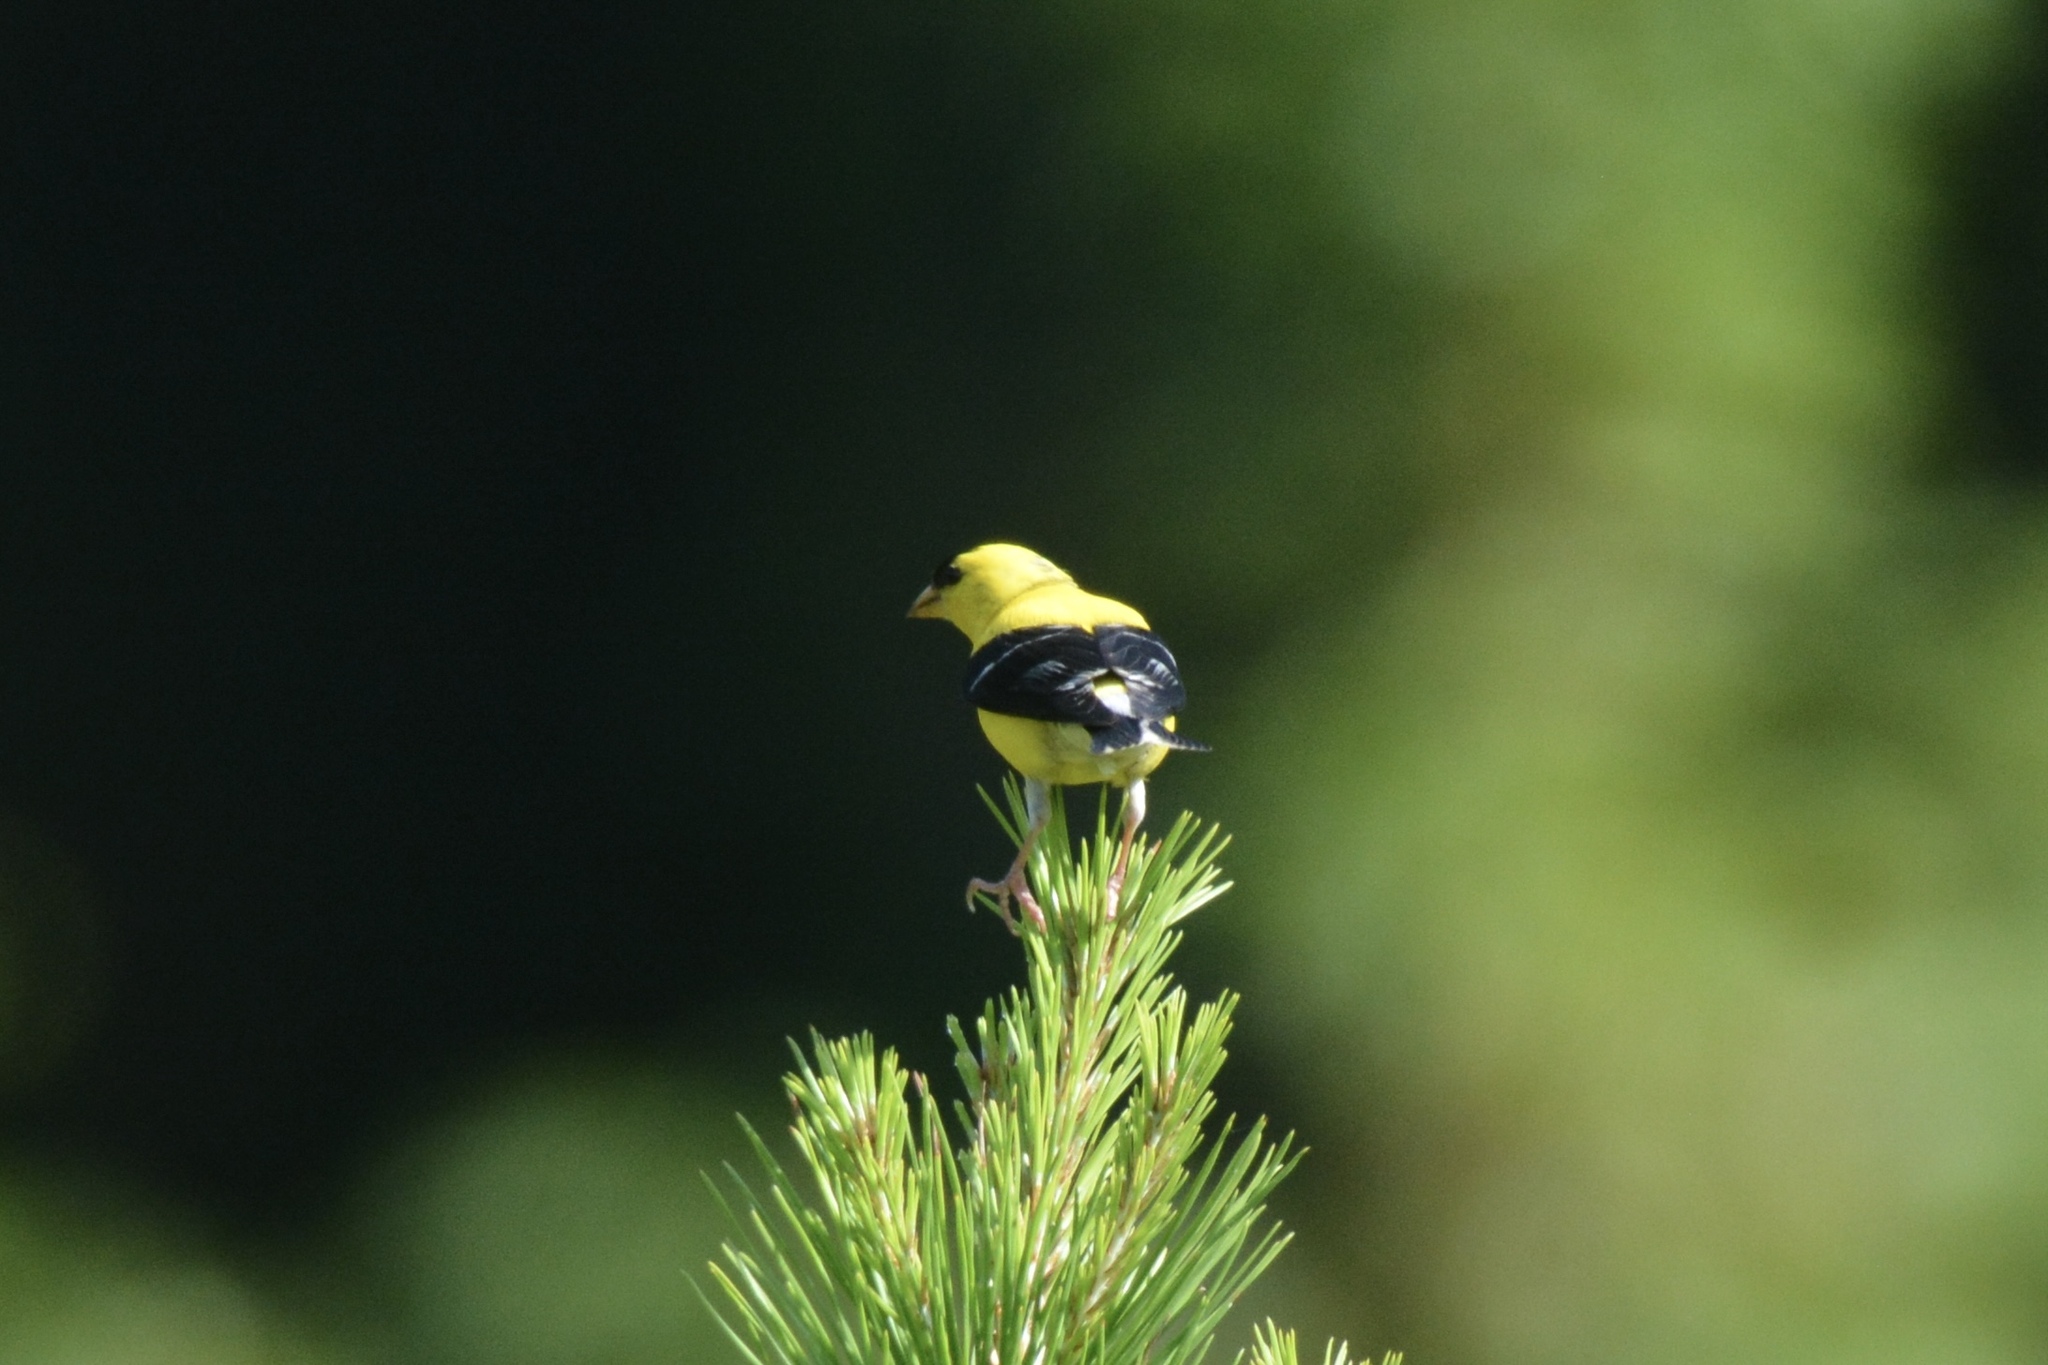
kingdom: Animalia
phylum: Chordata
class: Aves
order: Passeriformes
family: Fringillidae
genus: Spinus
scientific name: Spinus tristis
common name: American goldfinch
